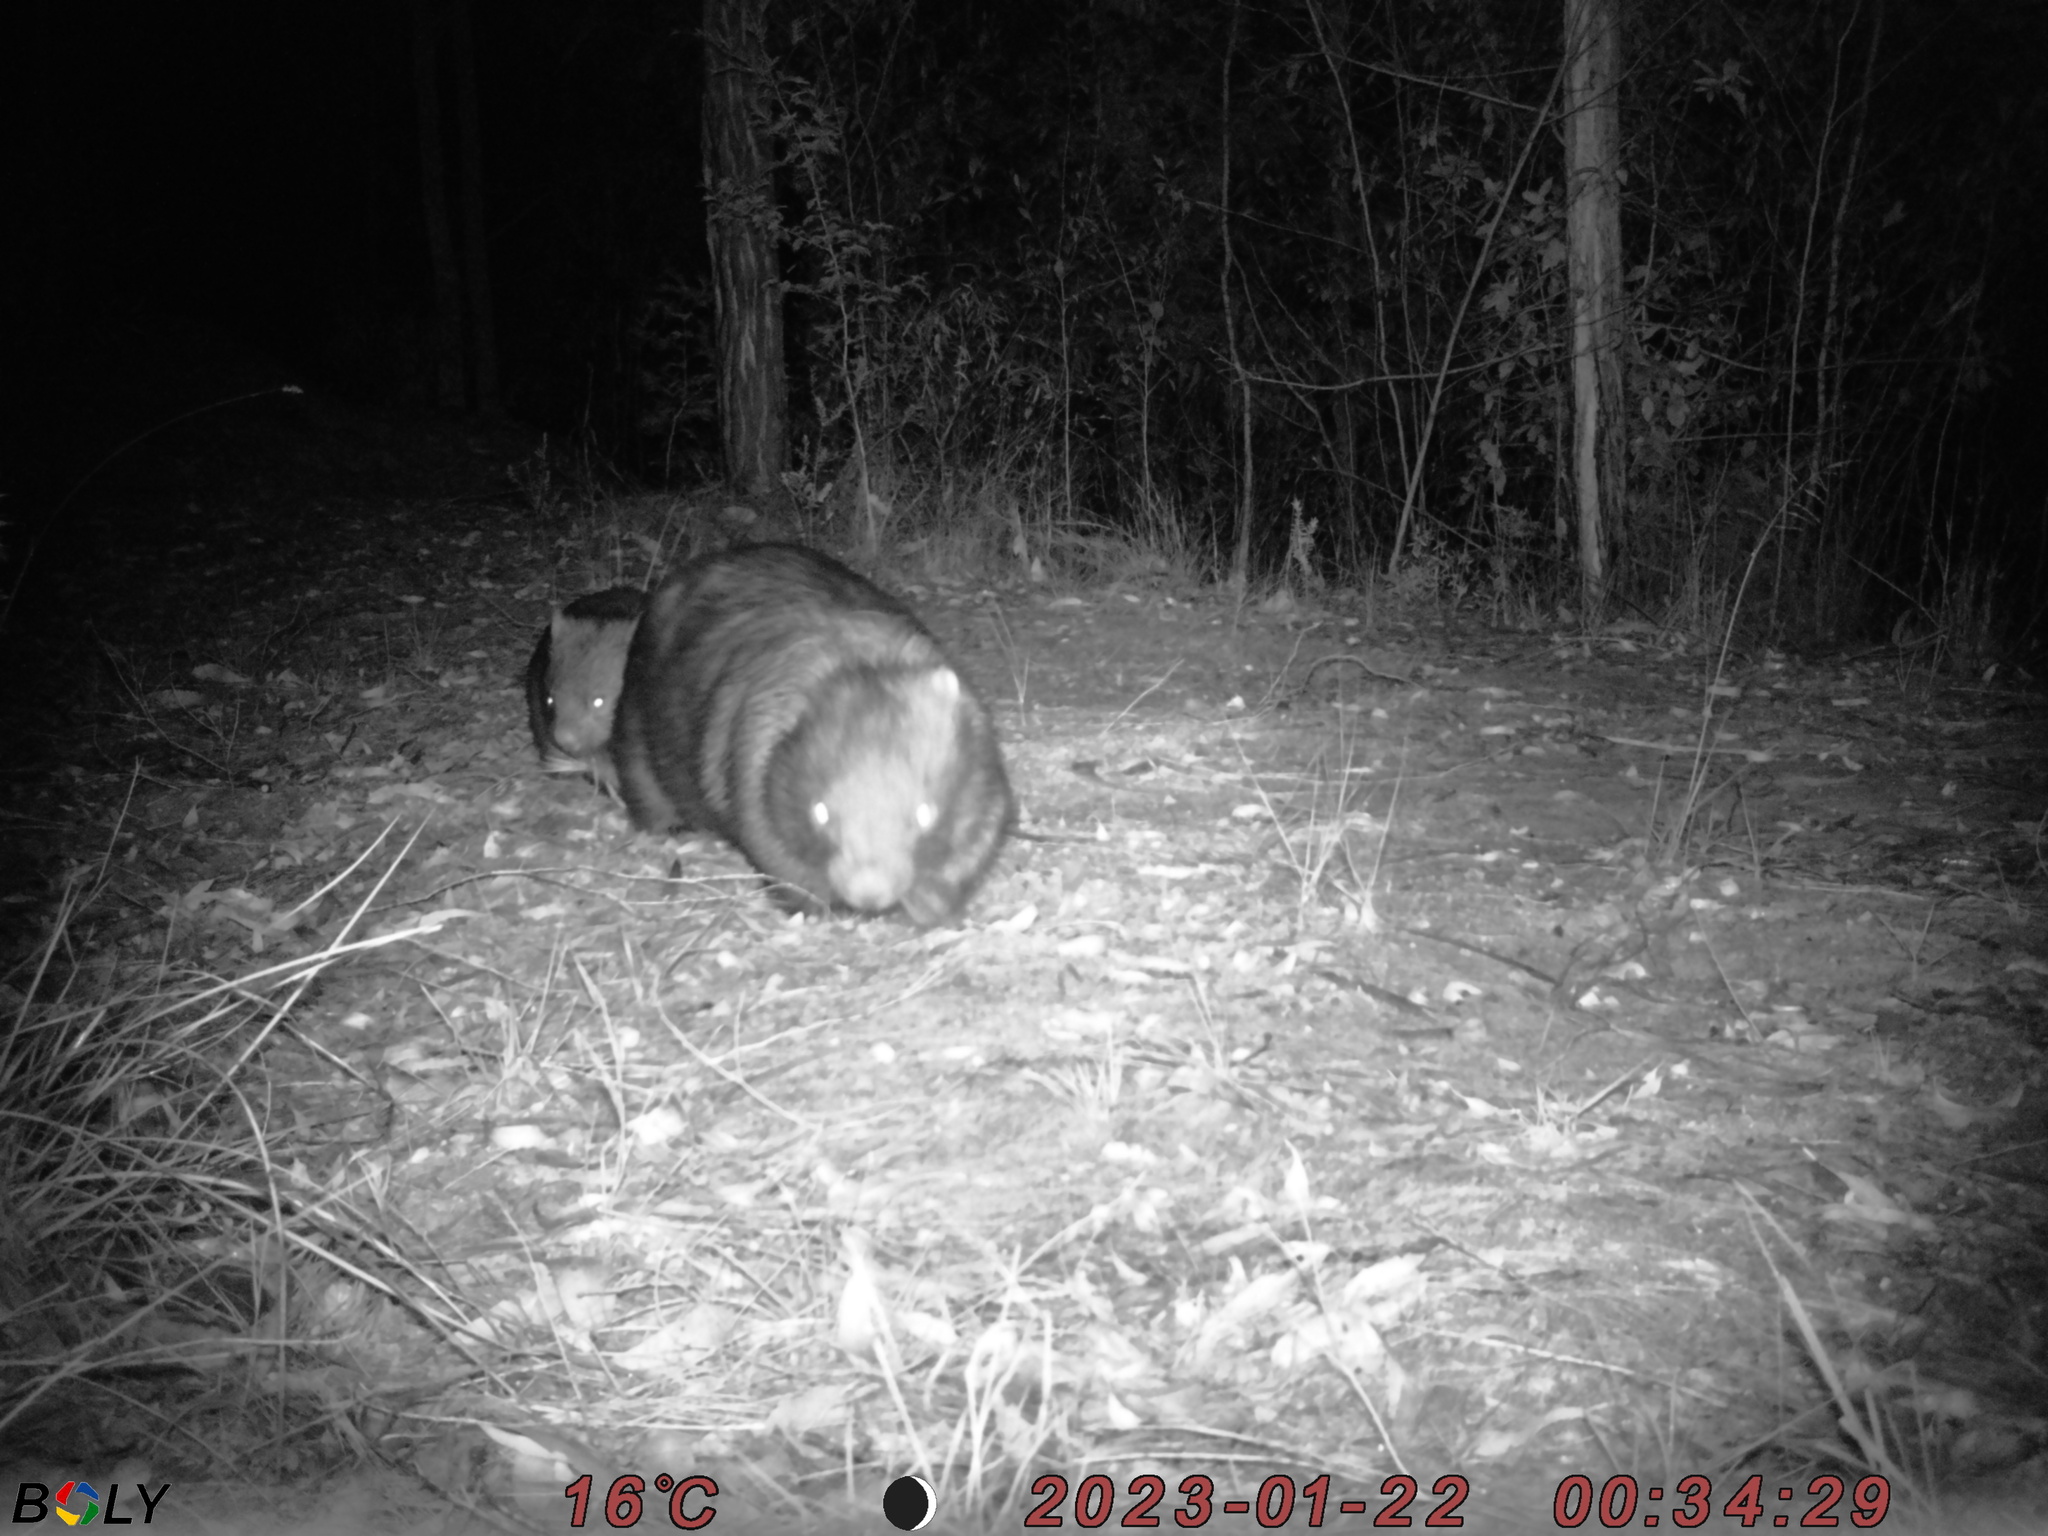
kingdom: Animalia
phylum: Chordata
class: Mammalia
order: Diprotodontia
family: Vombatidae
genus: Vombatus
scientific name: Vombatus ursinus
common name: Common wombat
